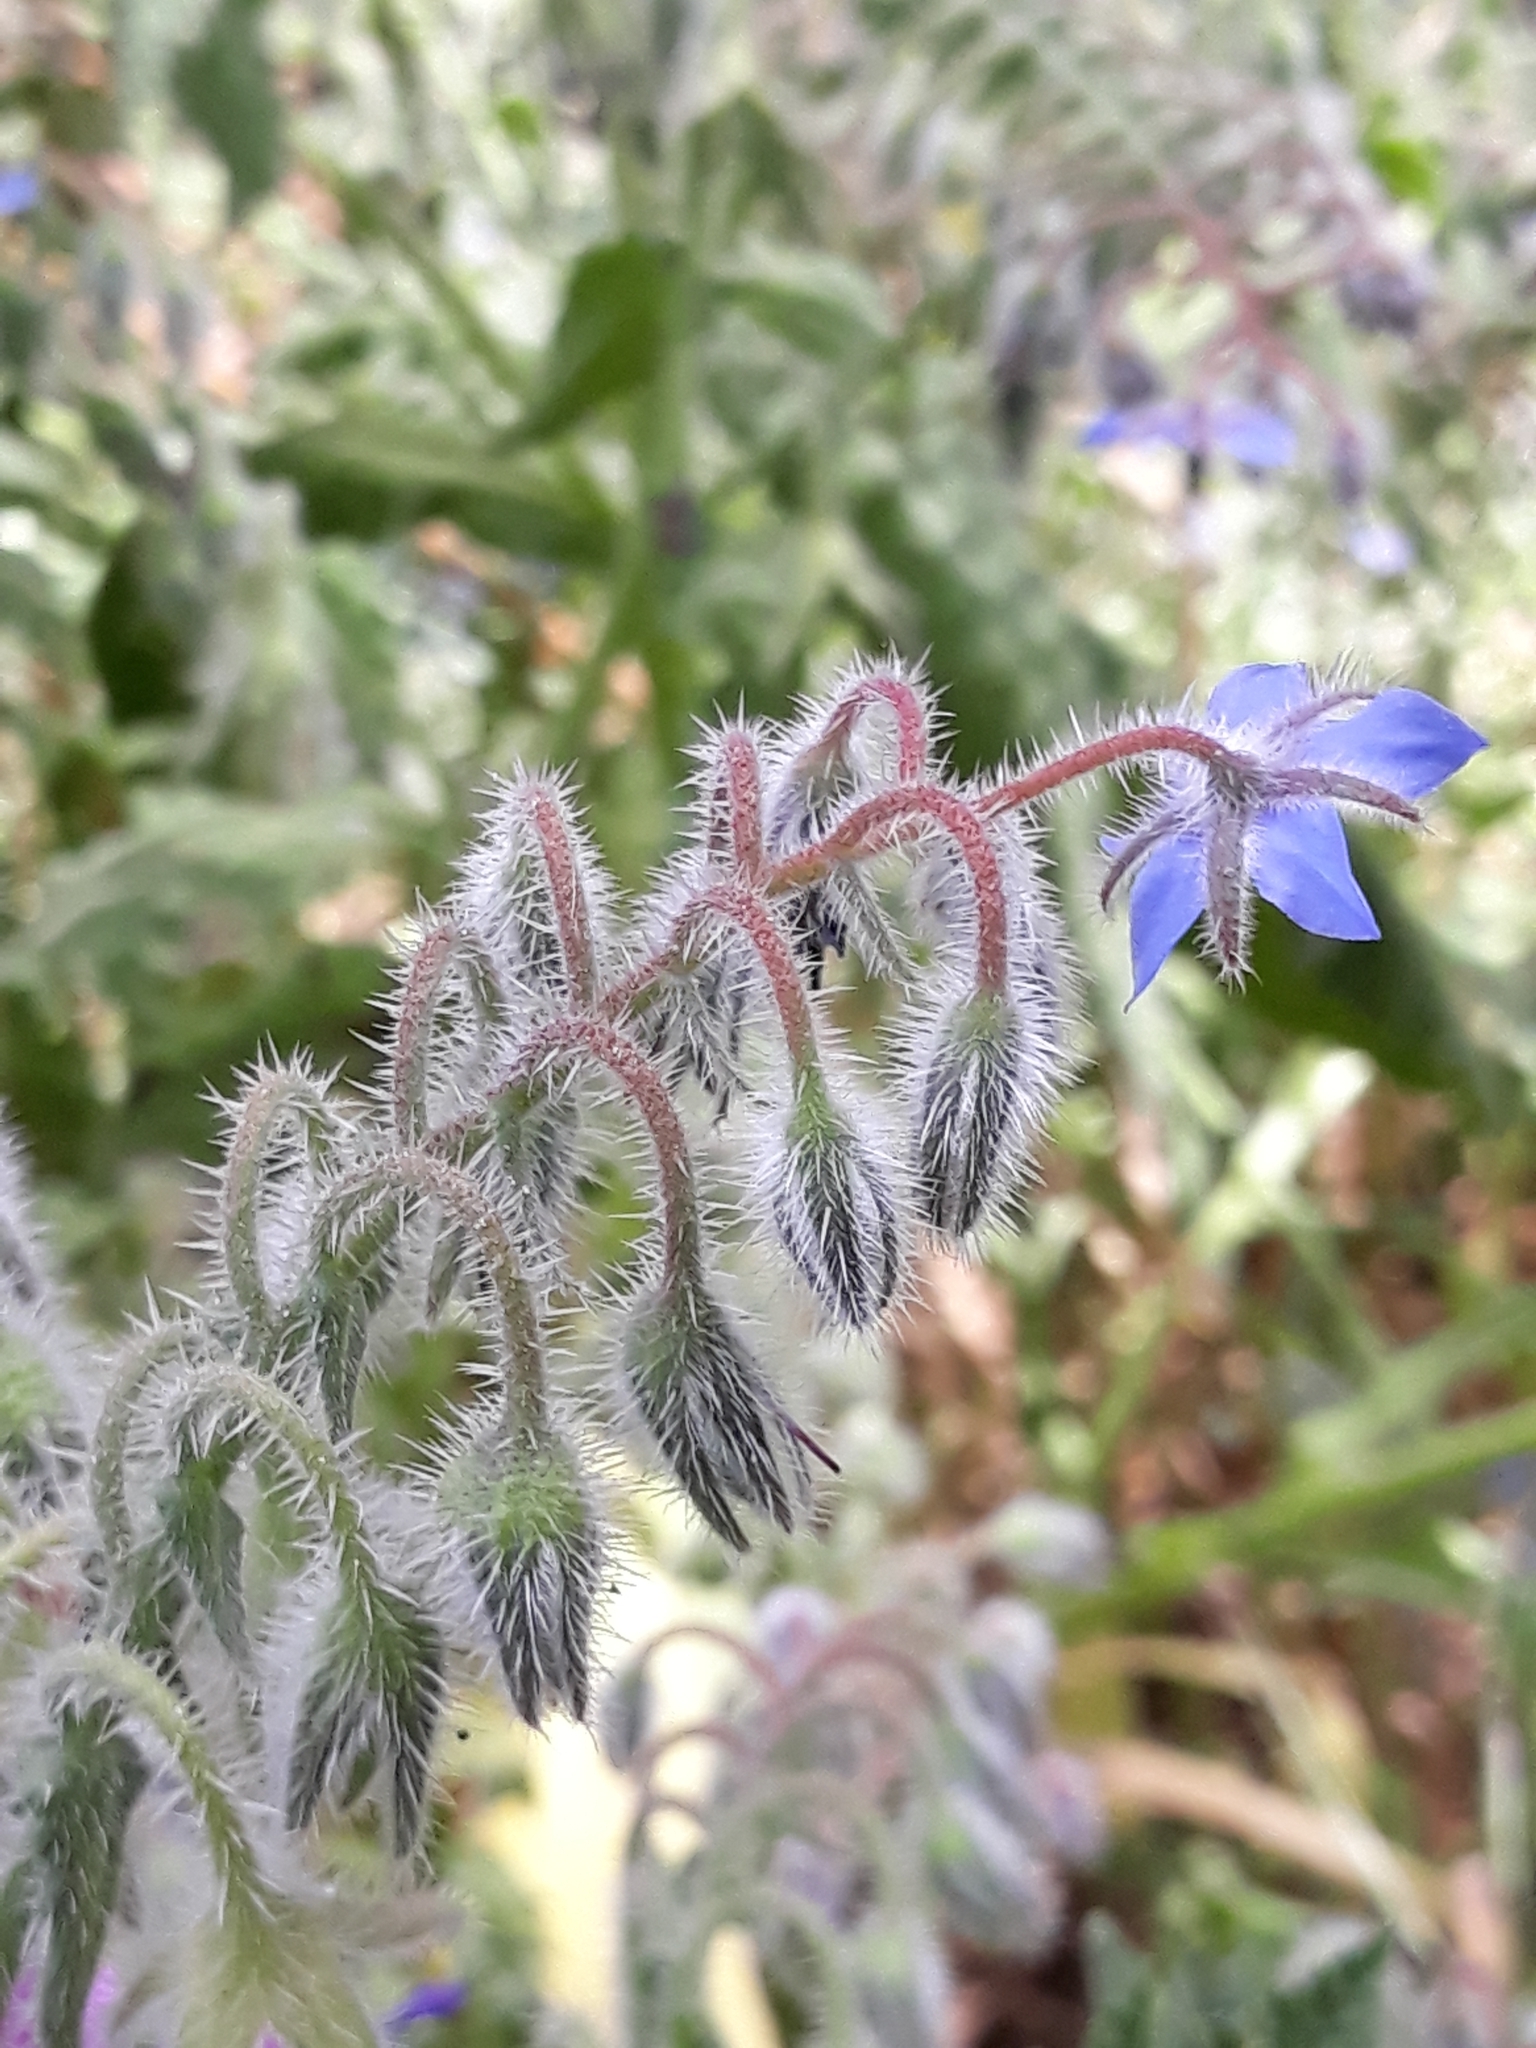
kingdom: Plantae
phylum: Tracheophyta
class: Magnoliopsida
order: Boraginales
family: Boraginaceae
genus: Borago
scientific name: Borago officinalis
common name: Borage
